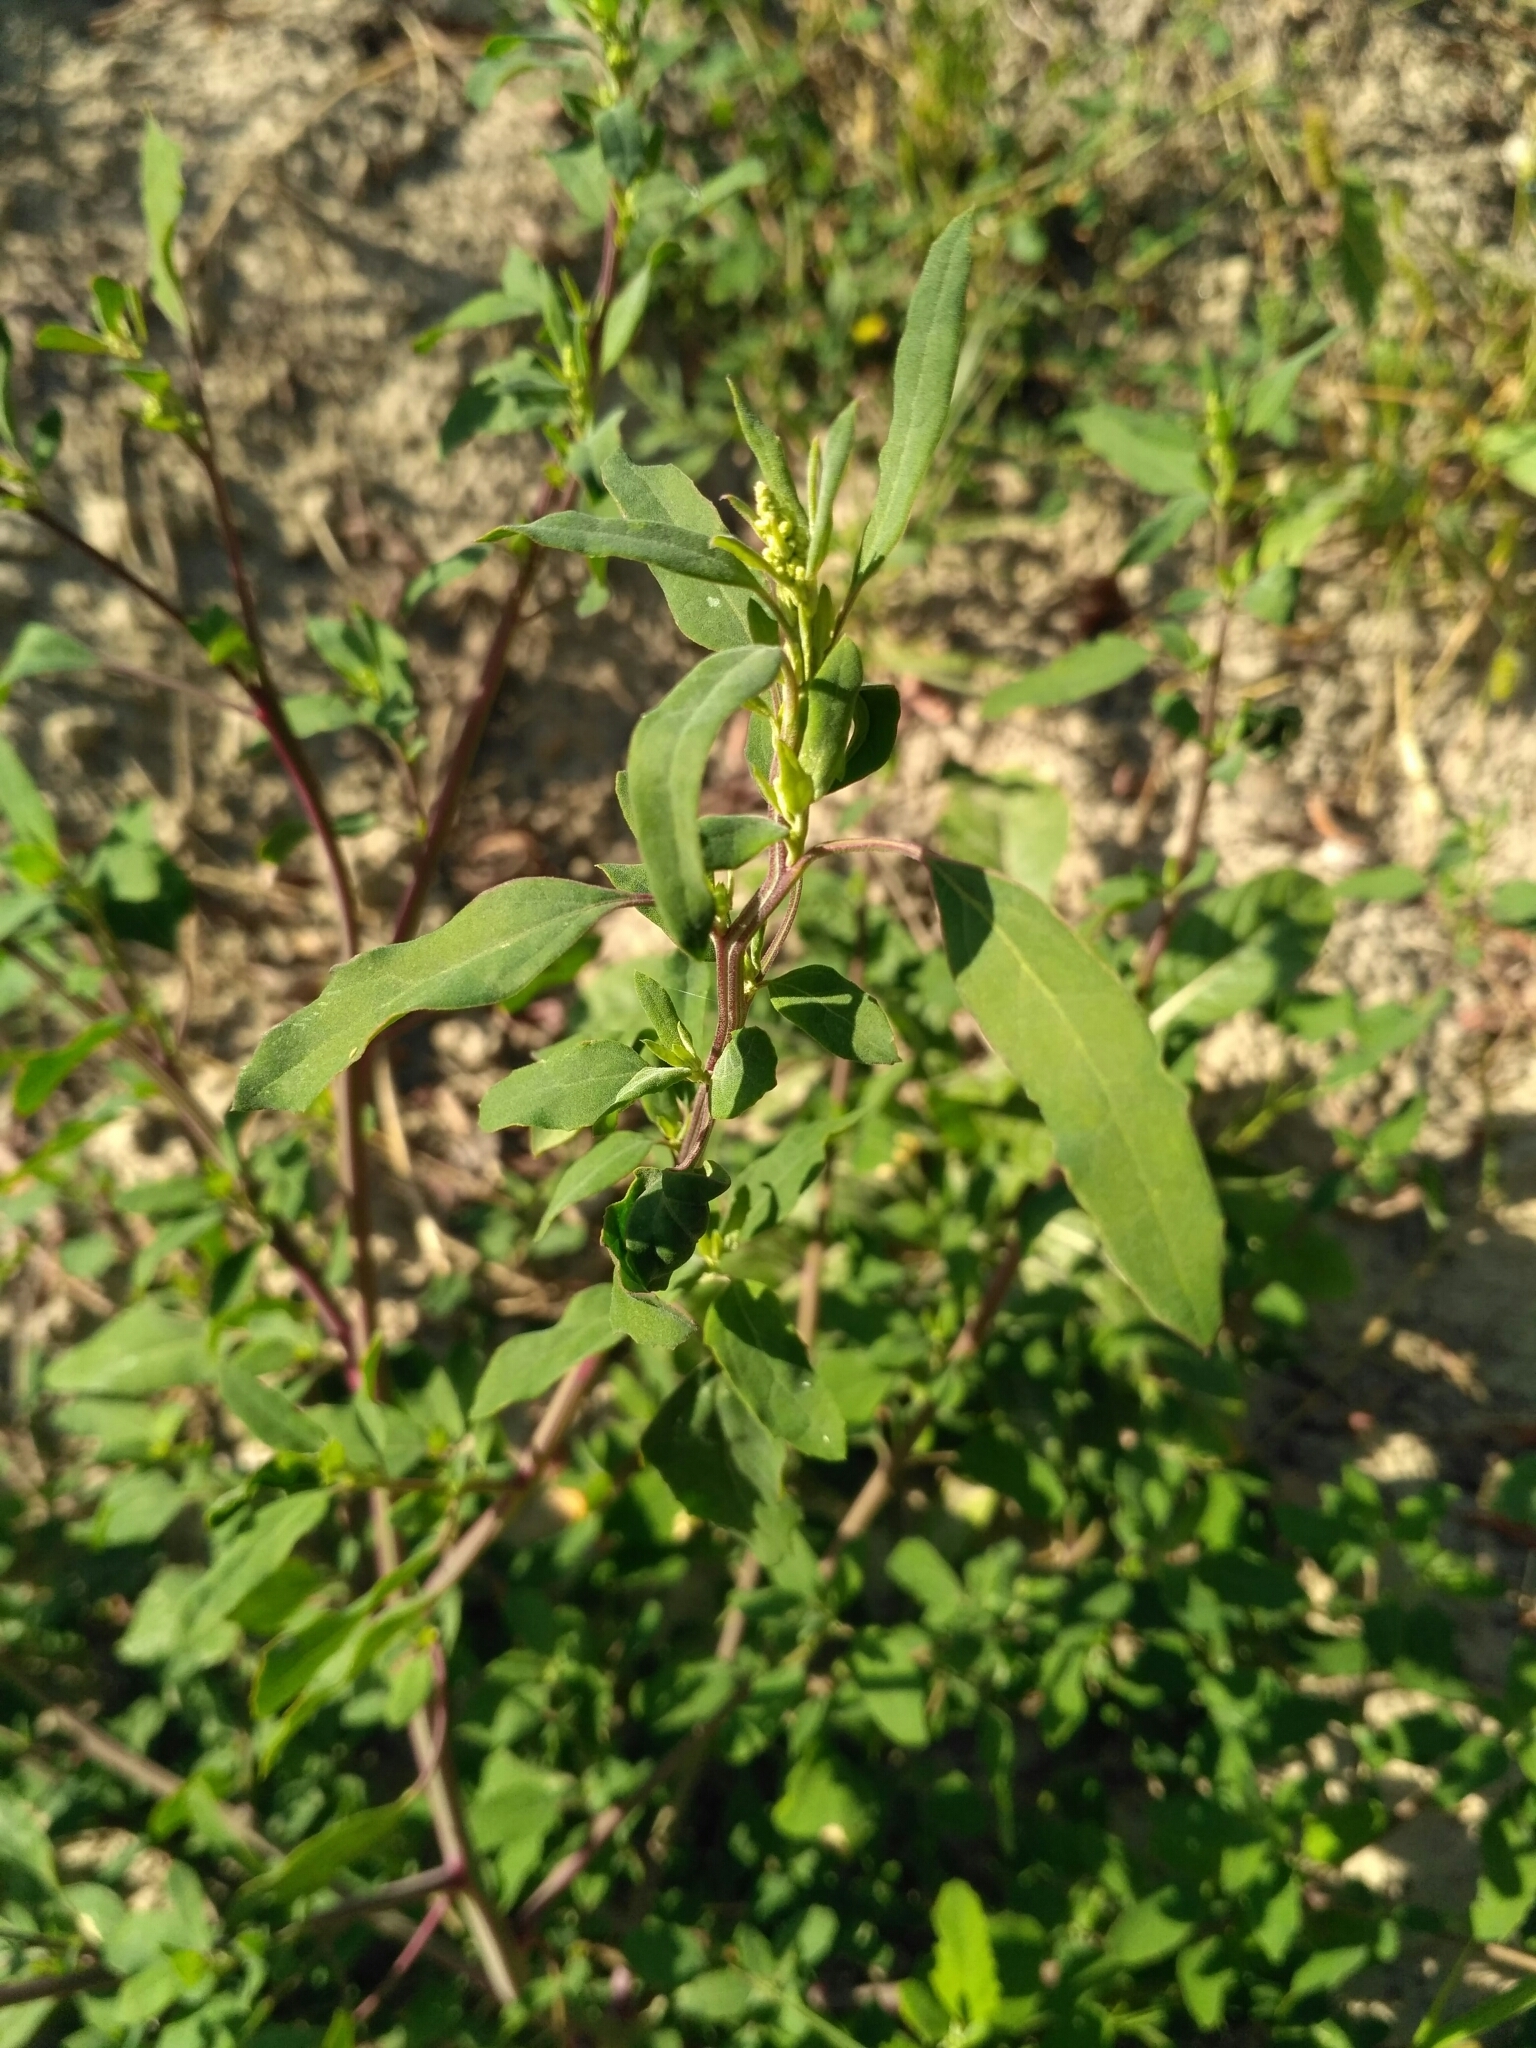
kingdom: Plantae
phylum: Tracheophyta
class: Magnoliopsida
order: Caryophyllales
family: Amaranthaceae
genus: Chenopodium
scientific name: Chenopodium betaceum
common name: Striped goosefoot
